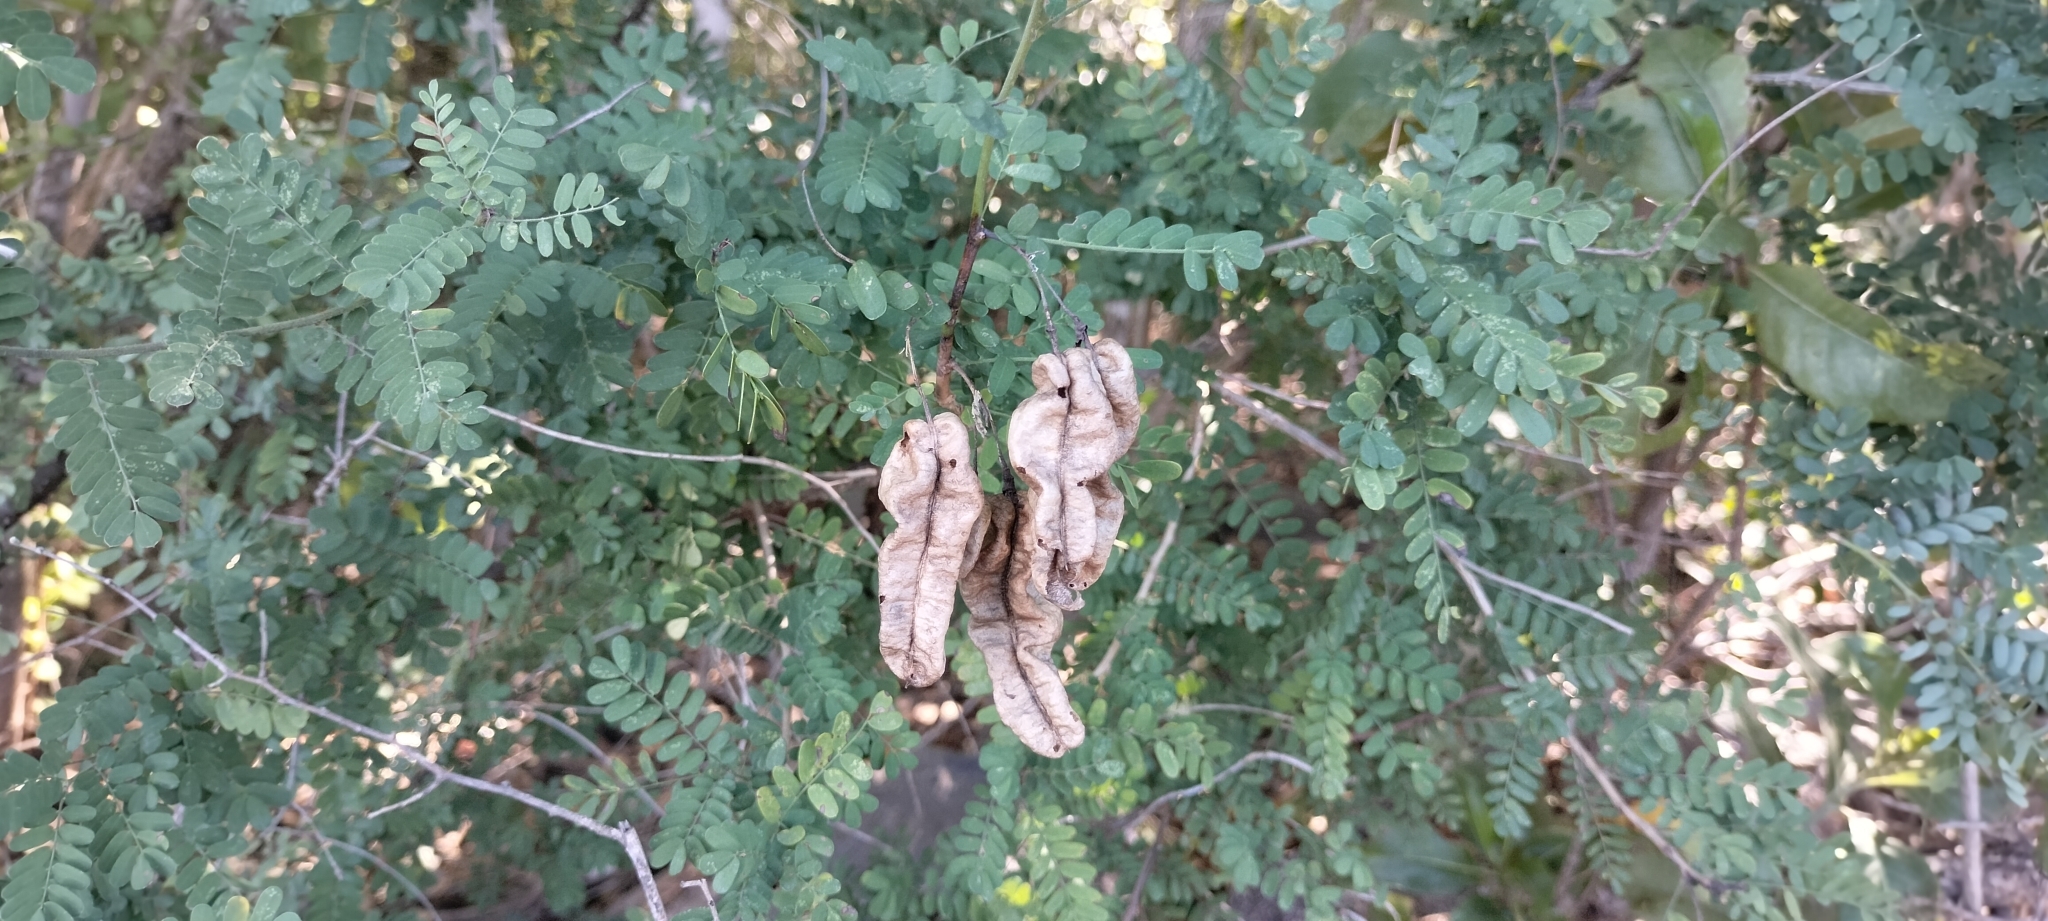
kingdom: Plantae
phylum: Tracheophyta
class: Magnoliopsida
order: Fabales
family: Fabaceae
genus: Diphysa
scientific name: Diphysa microphylla
